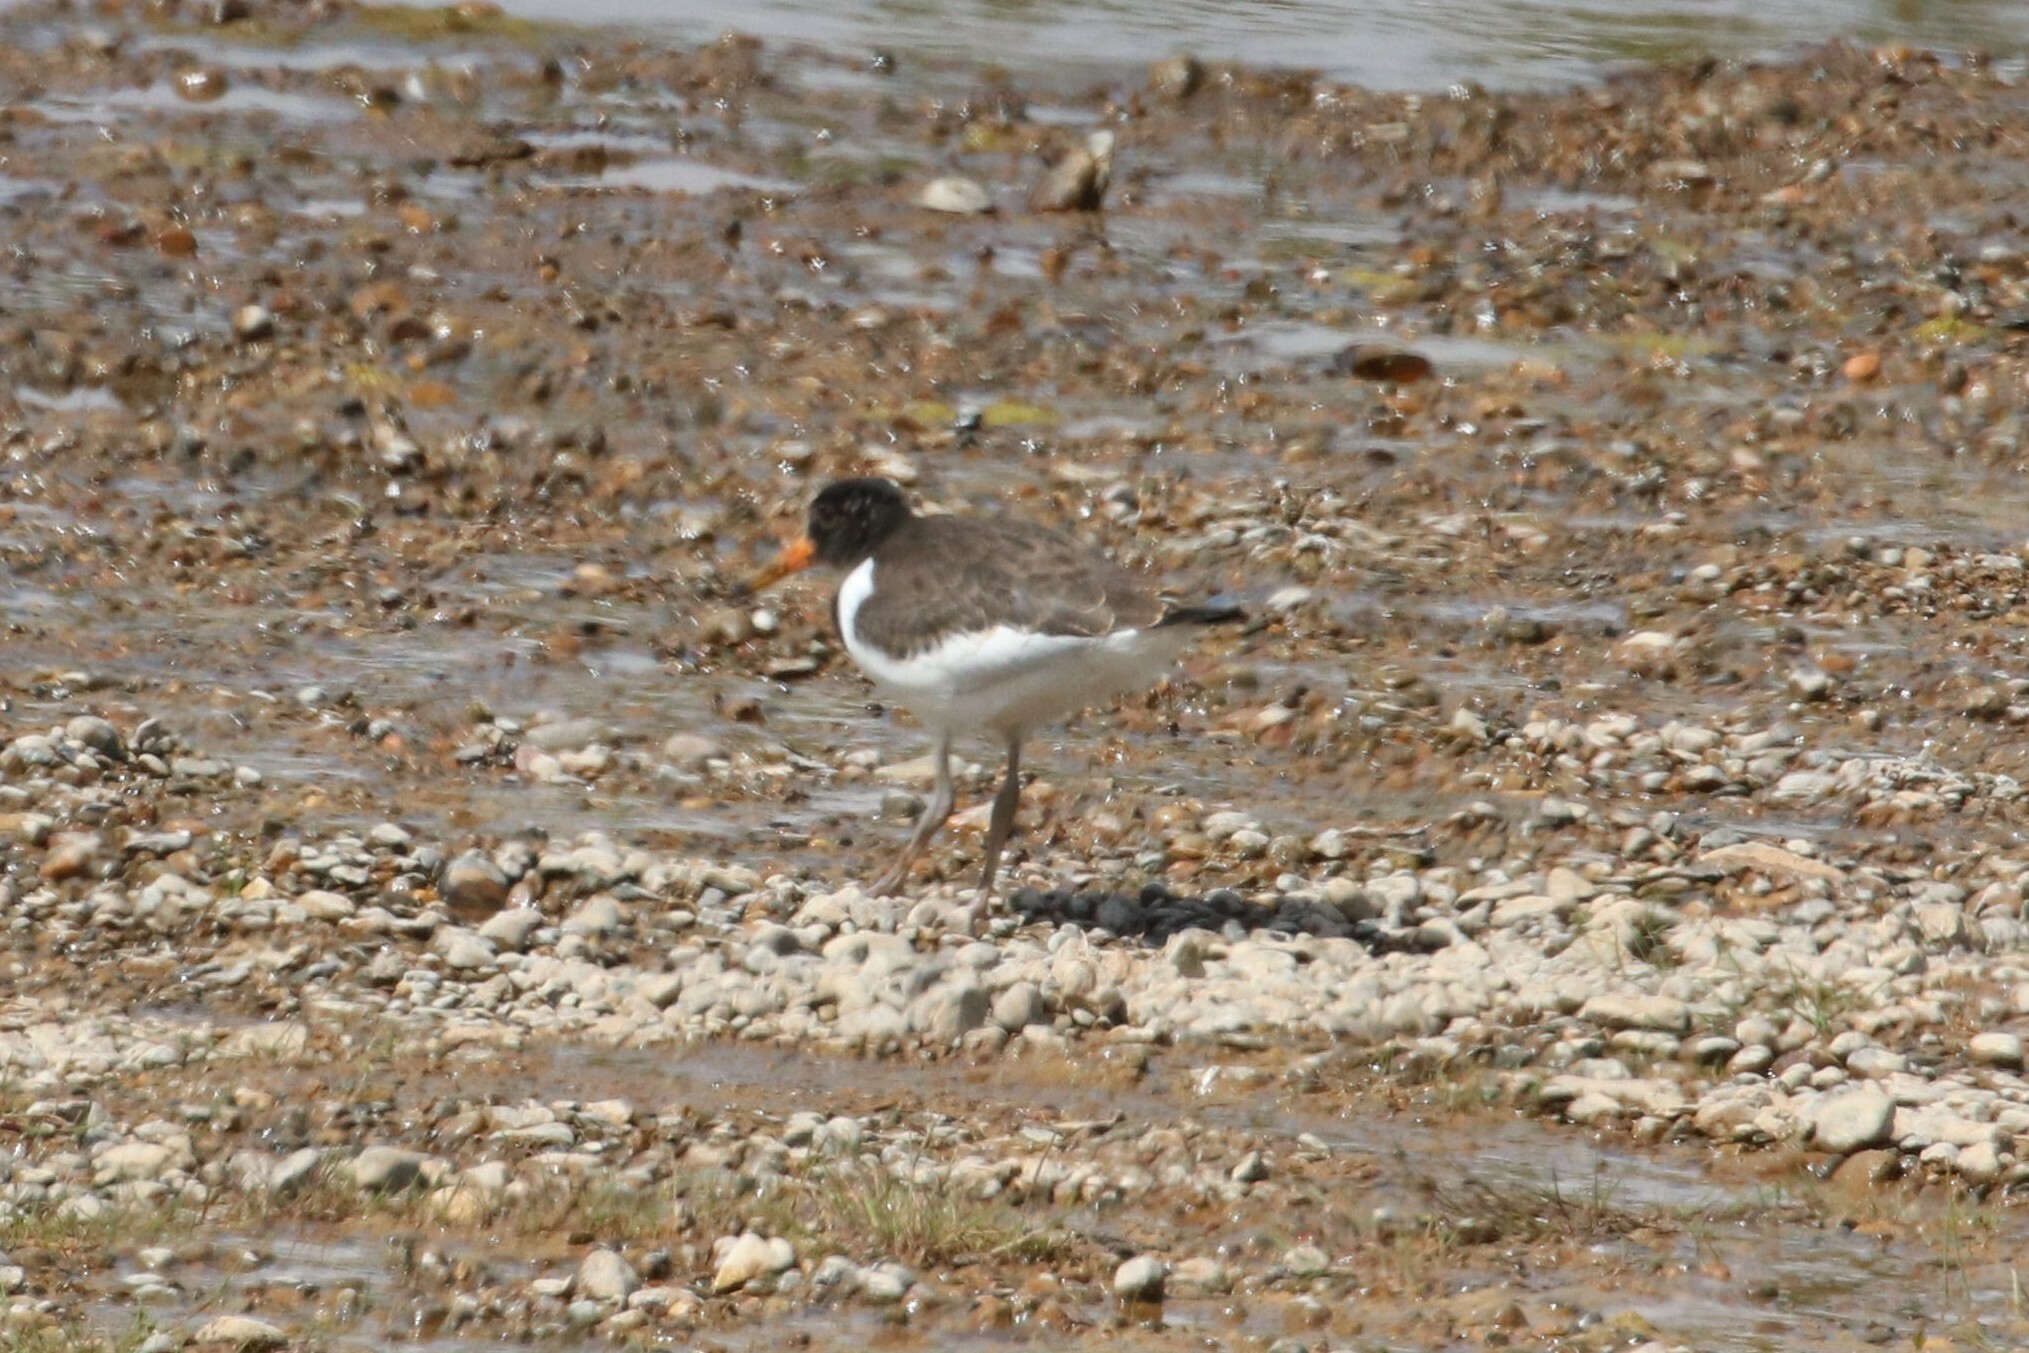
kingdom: Animalia
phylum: Chordata
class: Aves
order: Charadriiformes
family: Haematopodidae
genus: Haematopus
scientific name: Haematopus ostralegus
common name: Eurasian oystercatcher
